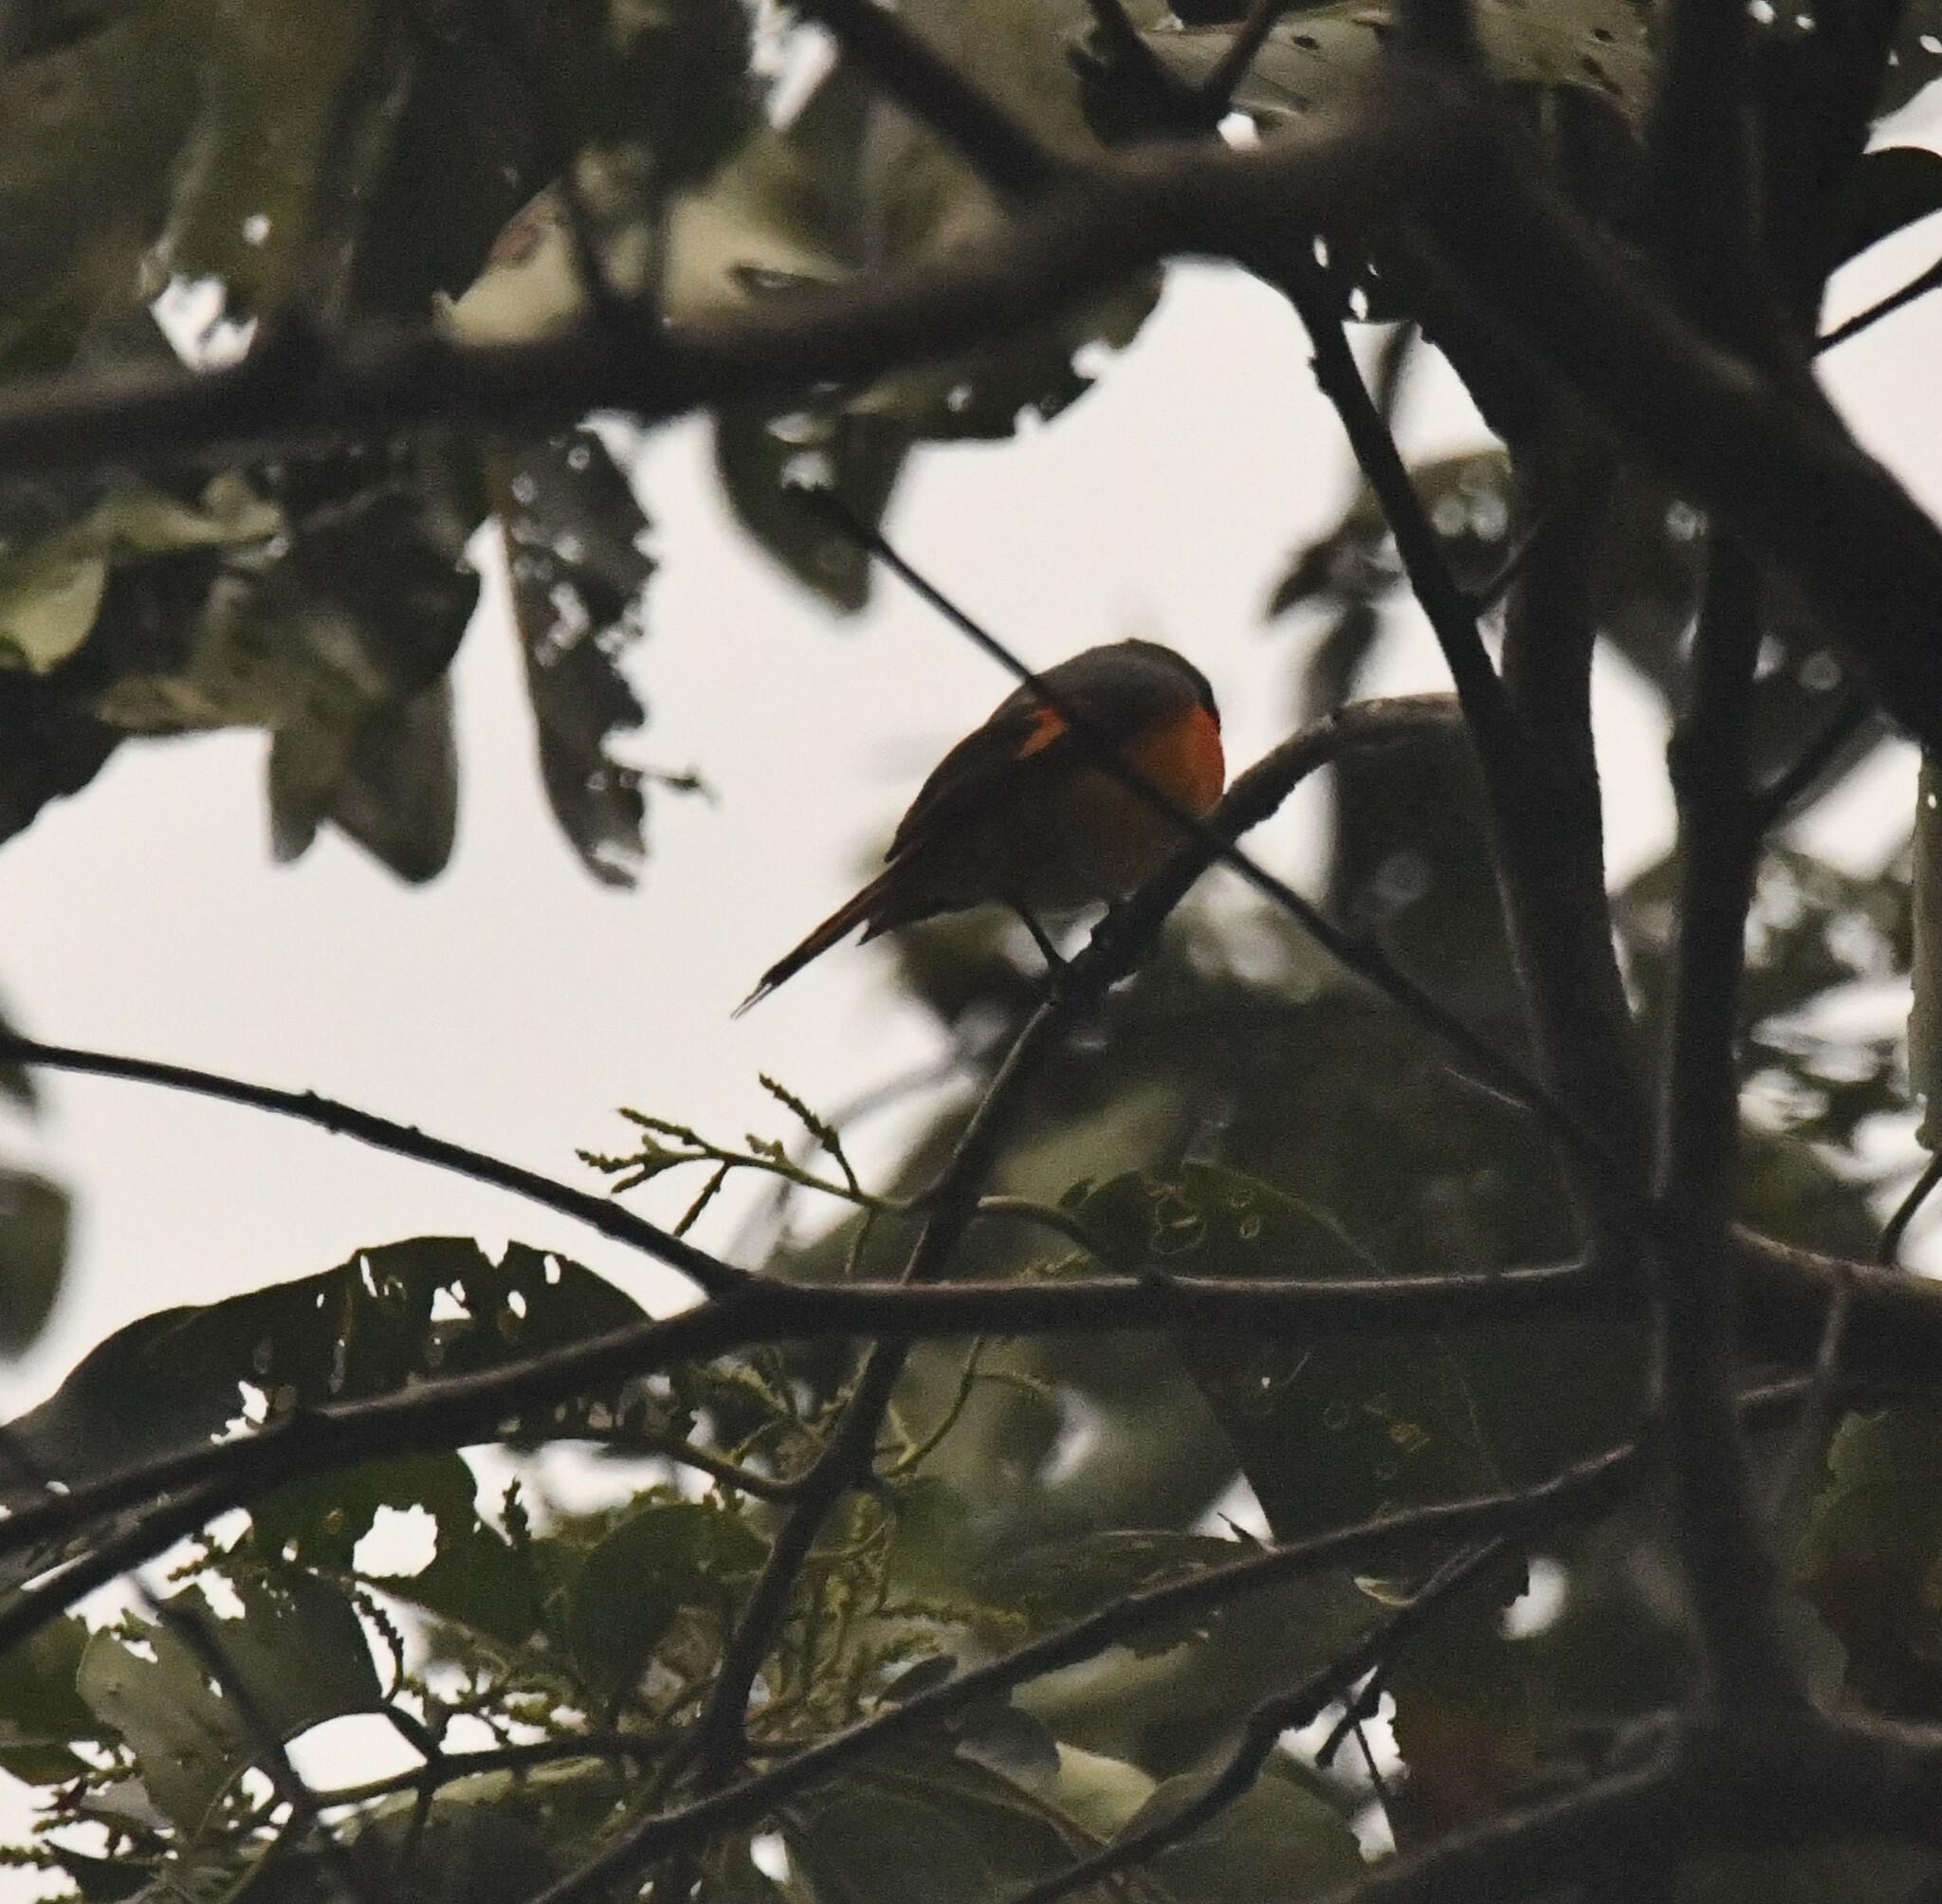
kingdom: Animalia
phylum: Chordata
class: Aves
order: Passeriformes
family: Campephagidae
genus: Pericrocotus
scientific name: Pericrocotus cinnamomeus
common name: Small minivet
